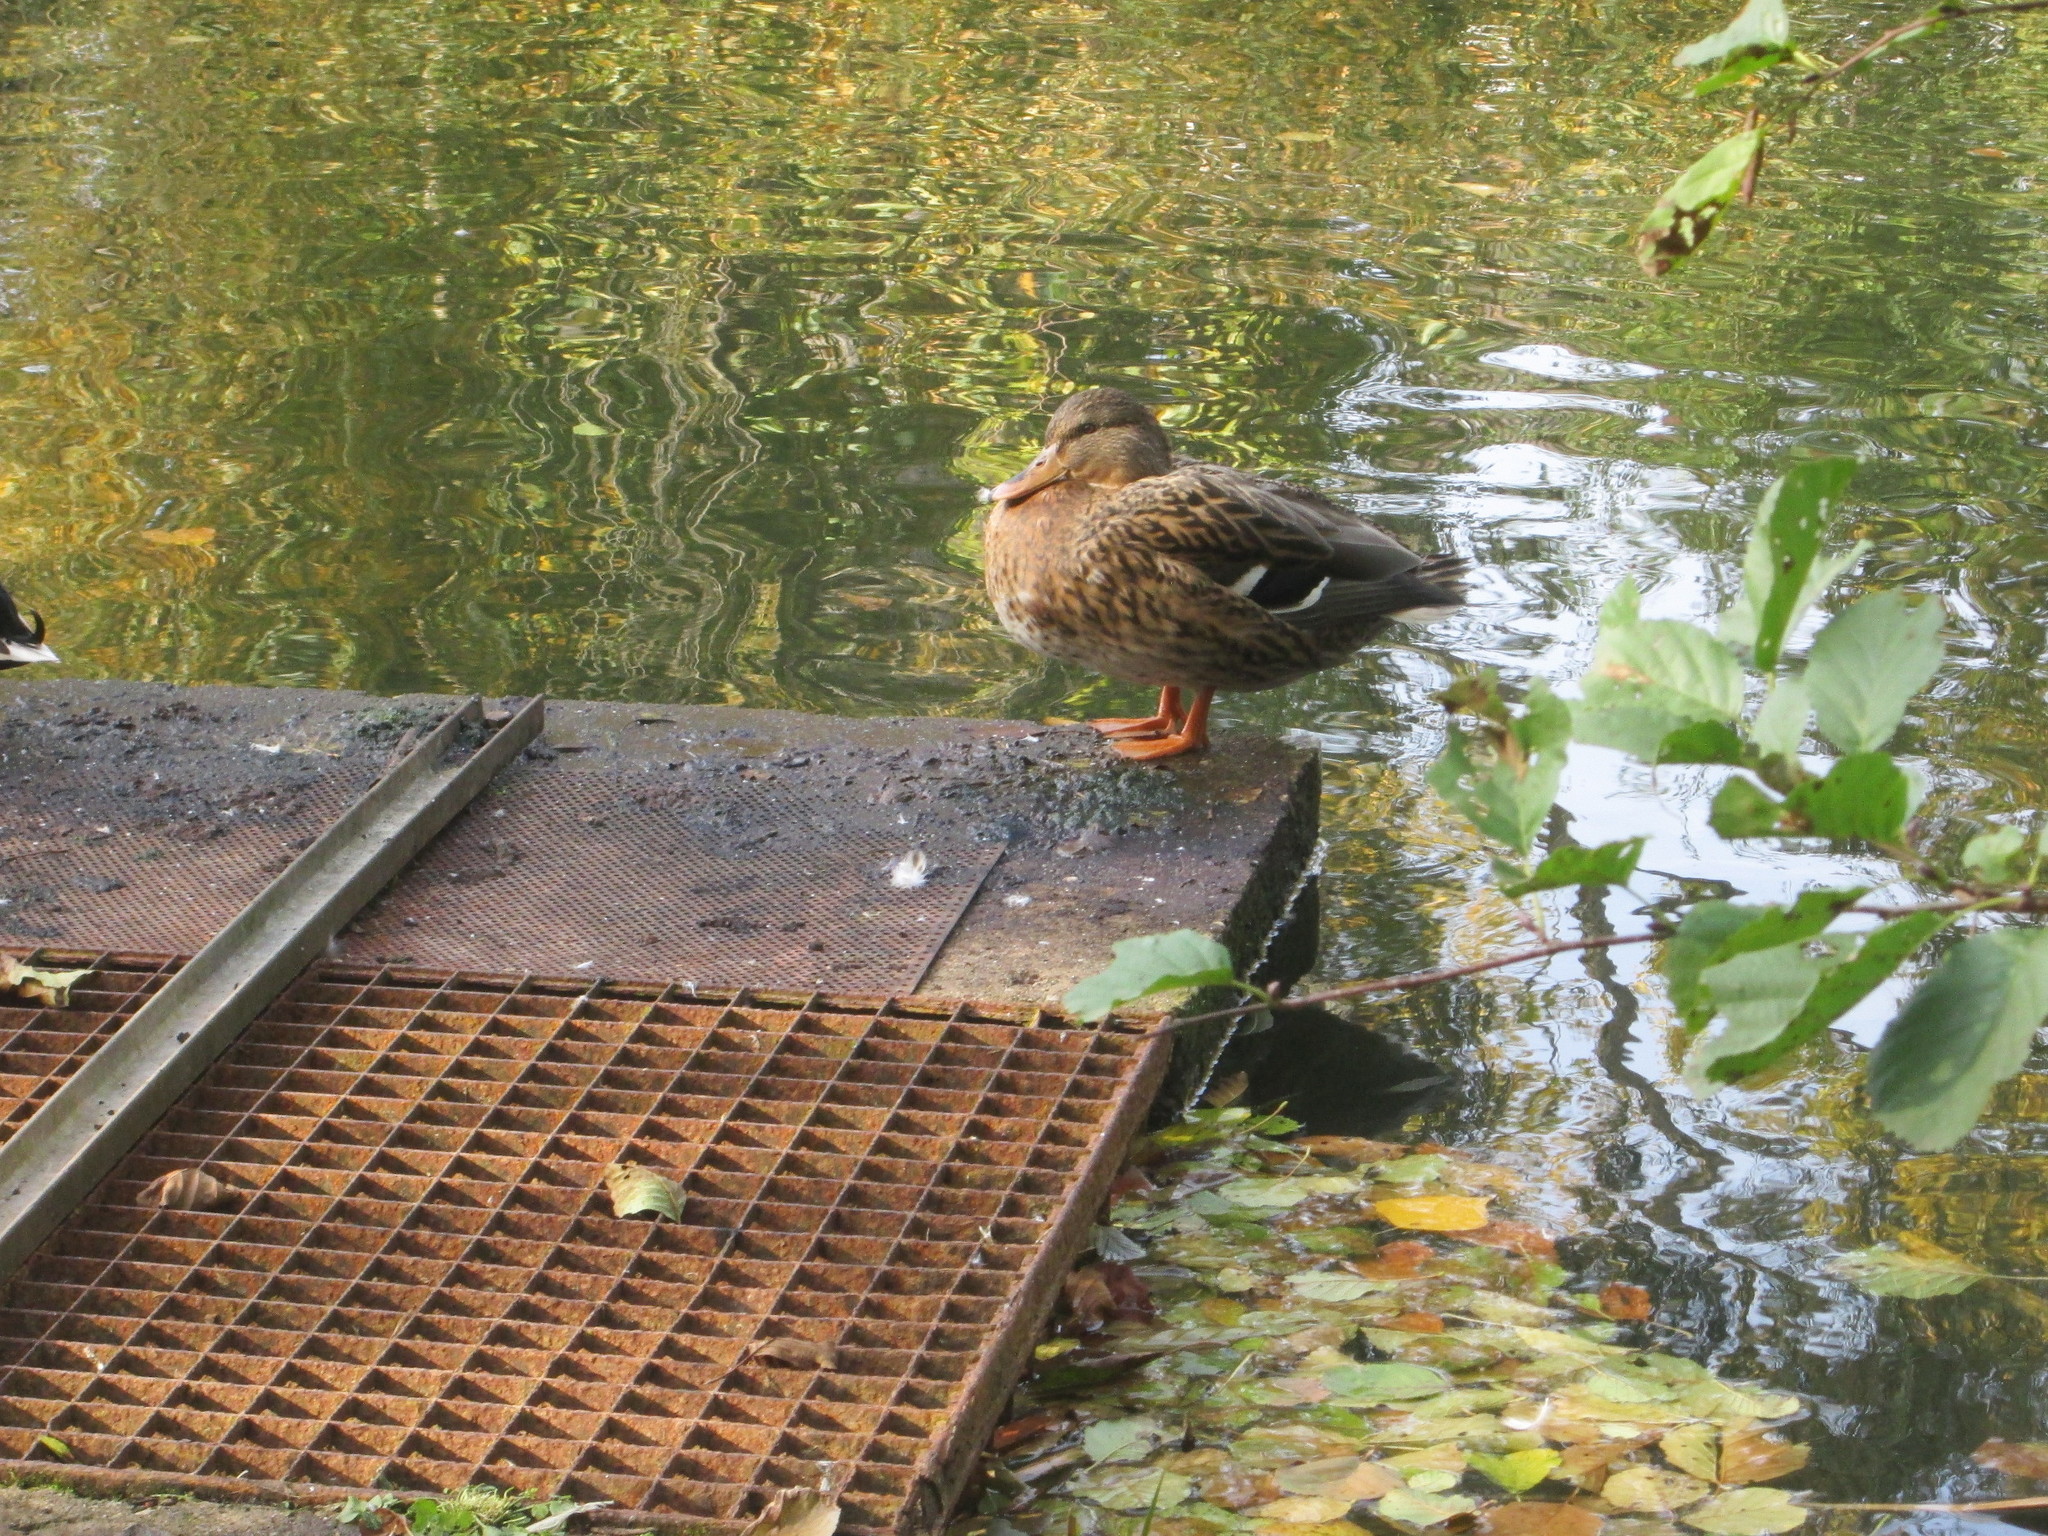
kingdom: Animalia
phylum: Chordata
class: Aves
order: Anseriformes
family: Anatidae
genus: Anas
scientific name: Anas platyrhynchos
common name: Mallard
